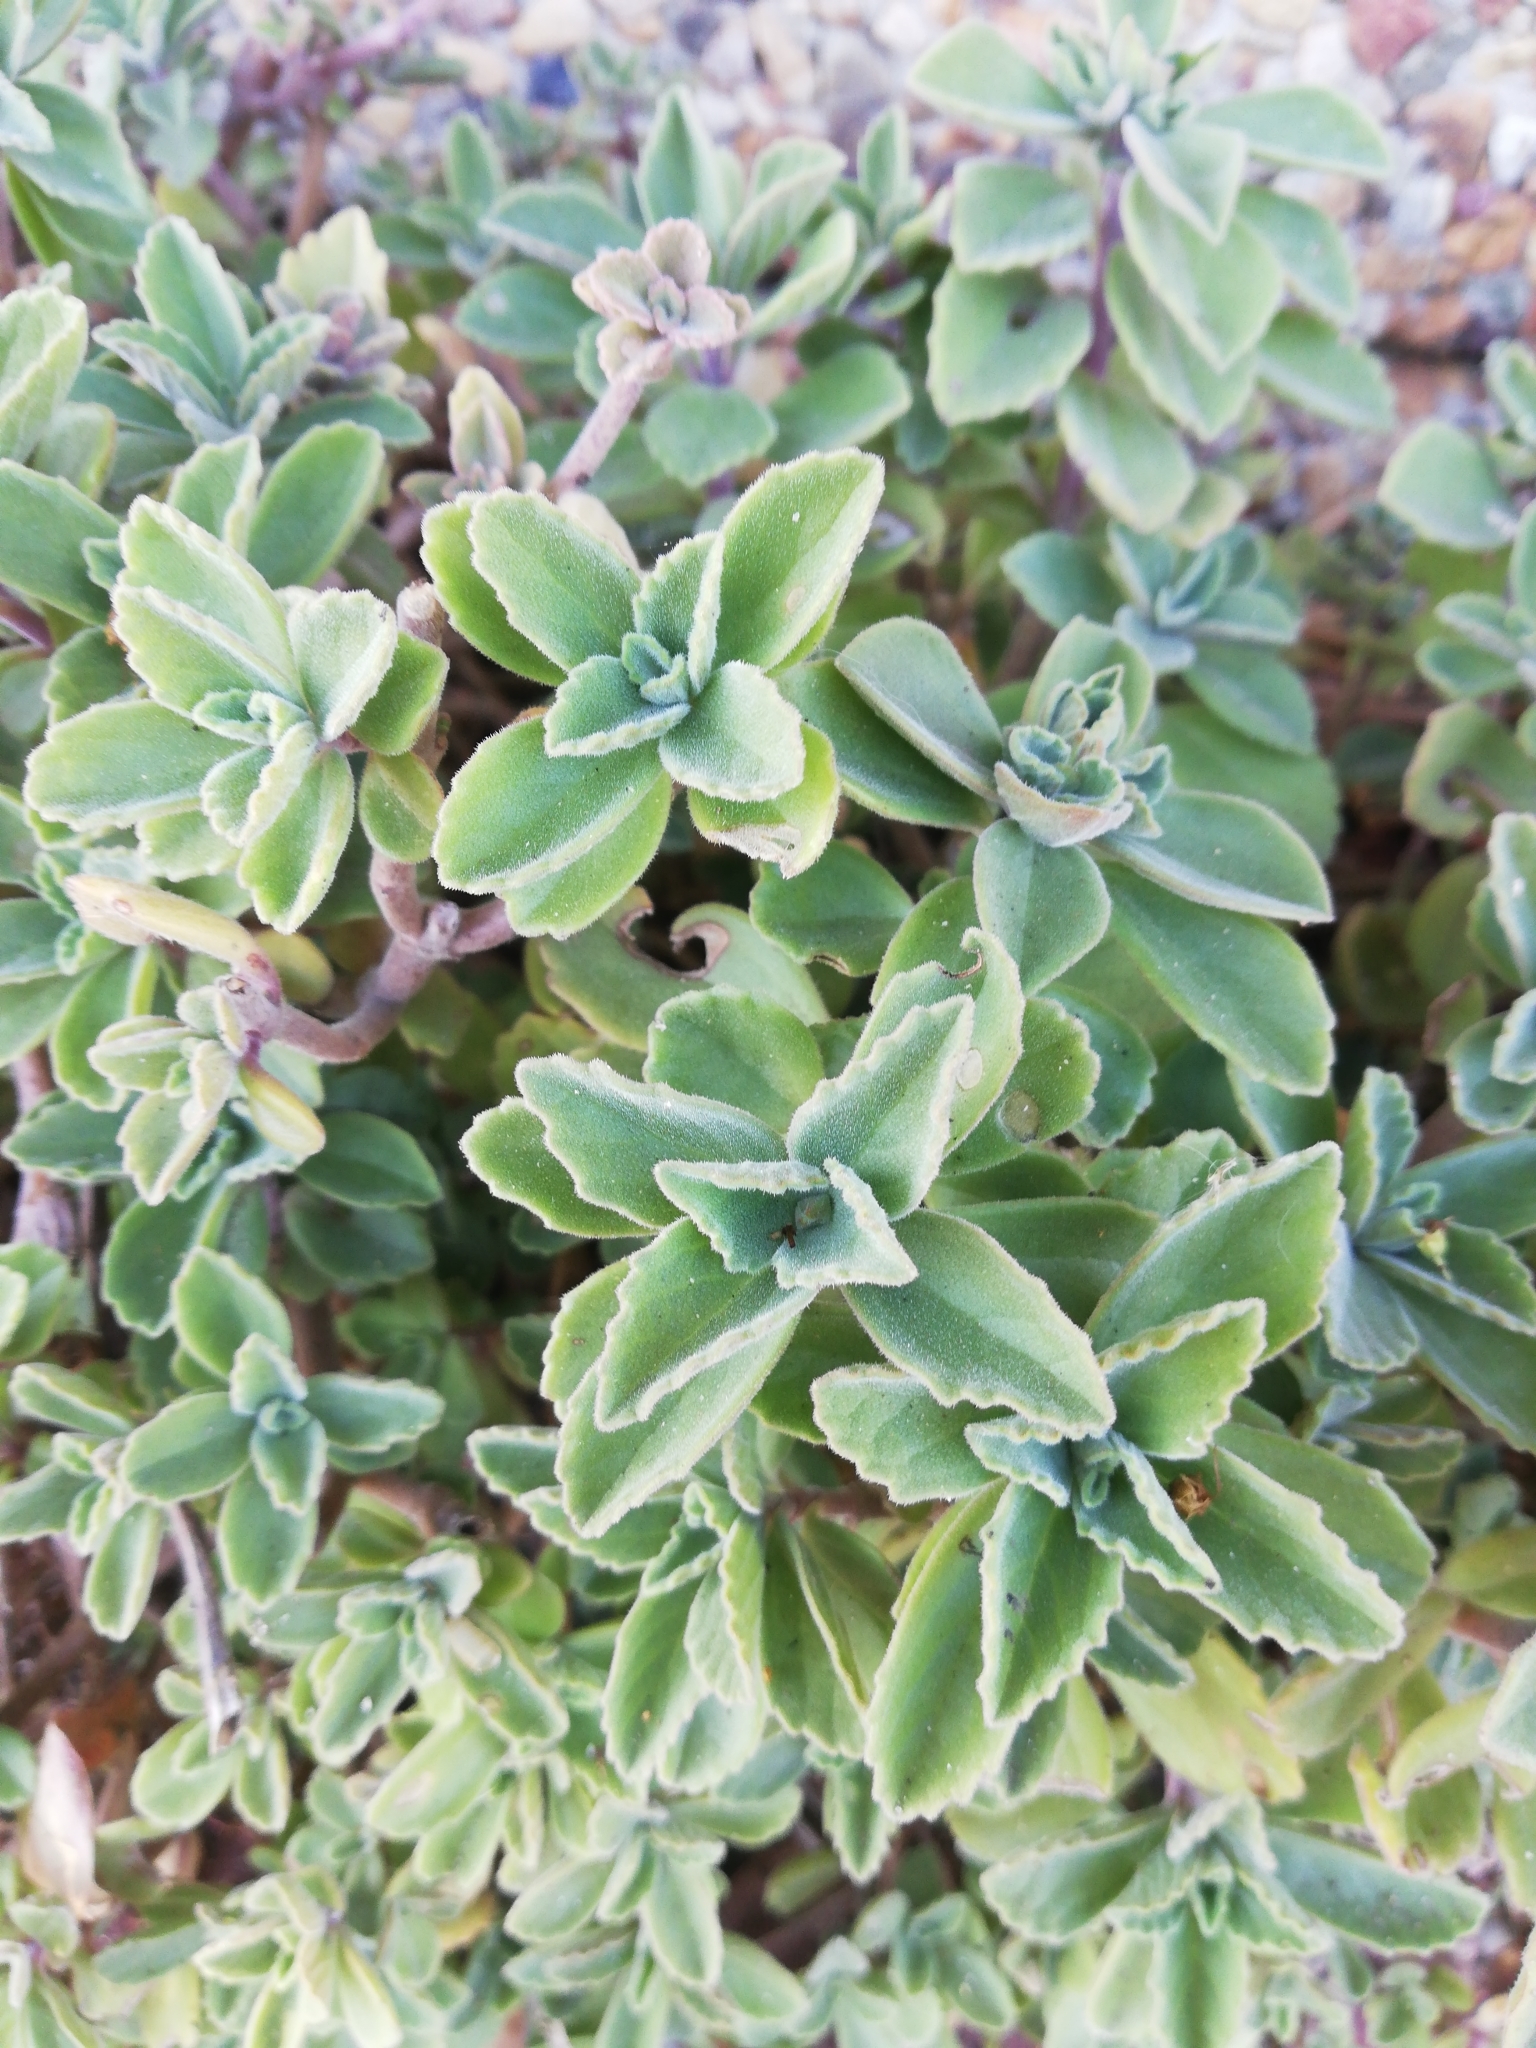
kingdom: Plantae
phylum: Tracheophyta
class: Magnoliopsida
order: Lamiales
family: Lamiaceae
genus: Coleus
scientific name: Coleus neochilus
